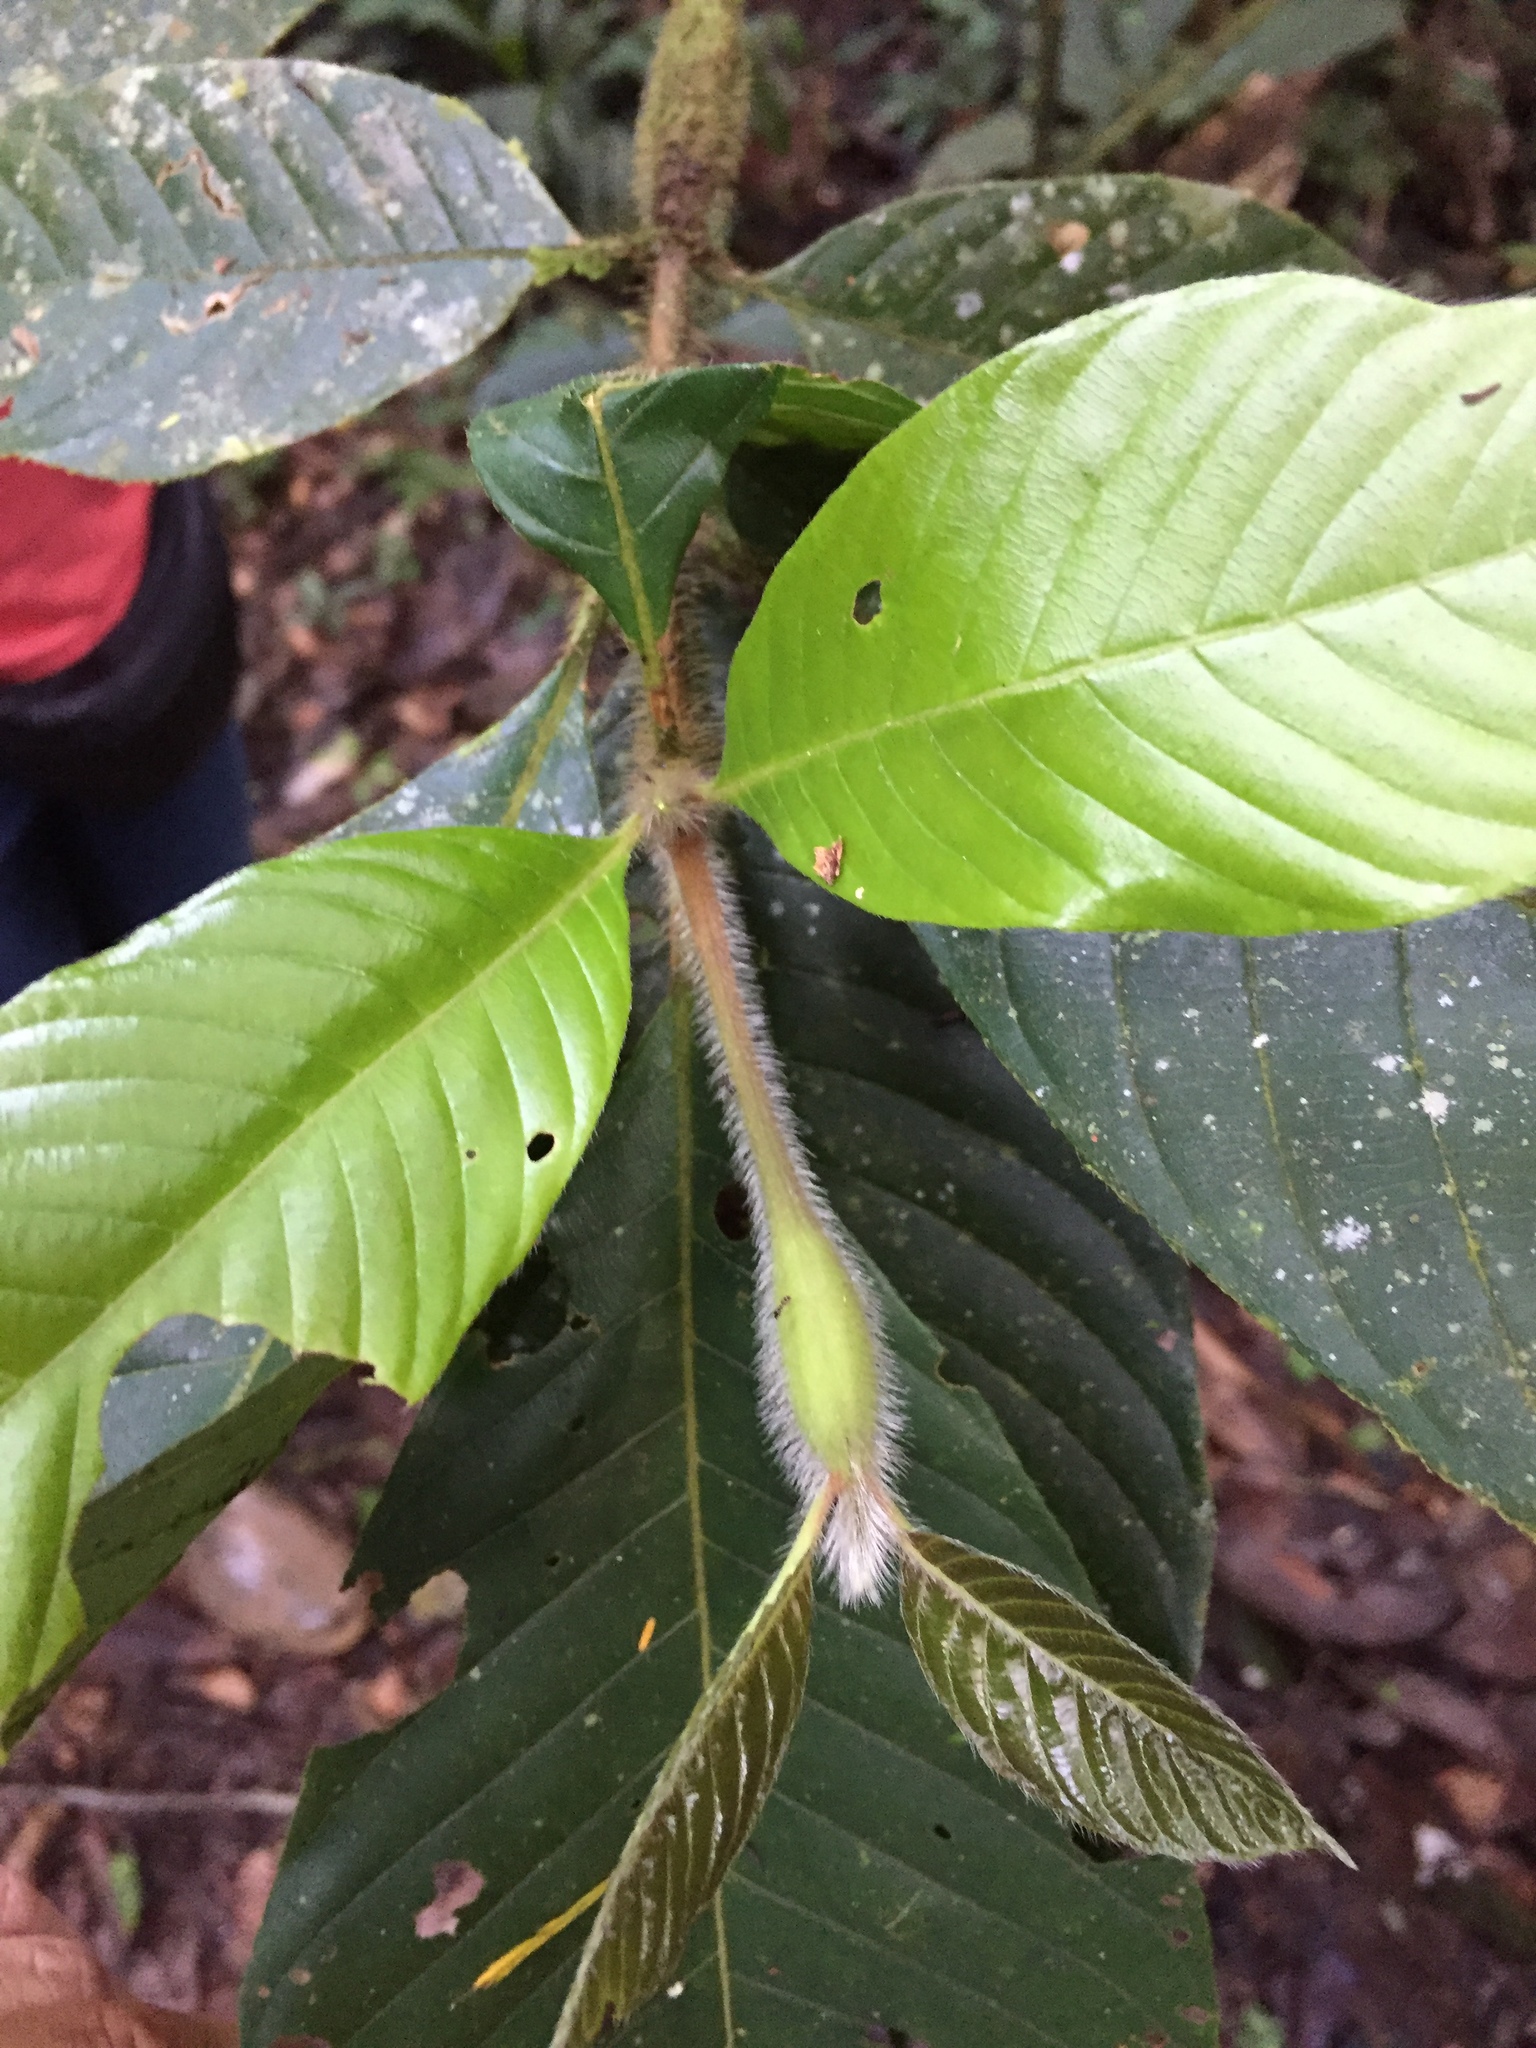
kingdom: Plantae
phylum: Tracheophyta
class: Magnoliopsida
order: Gentianales
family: Rubiaceae
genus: Duroia
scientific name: Duroia hirsuta
